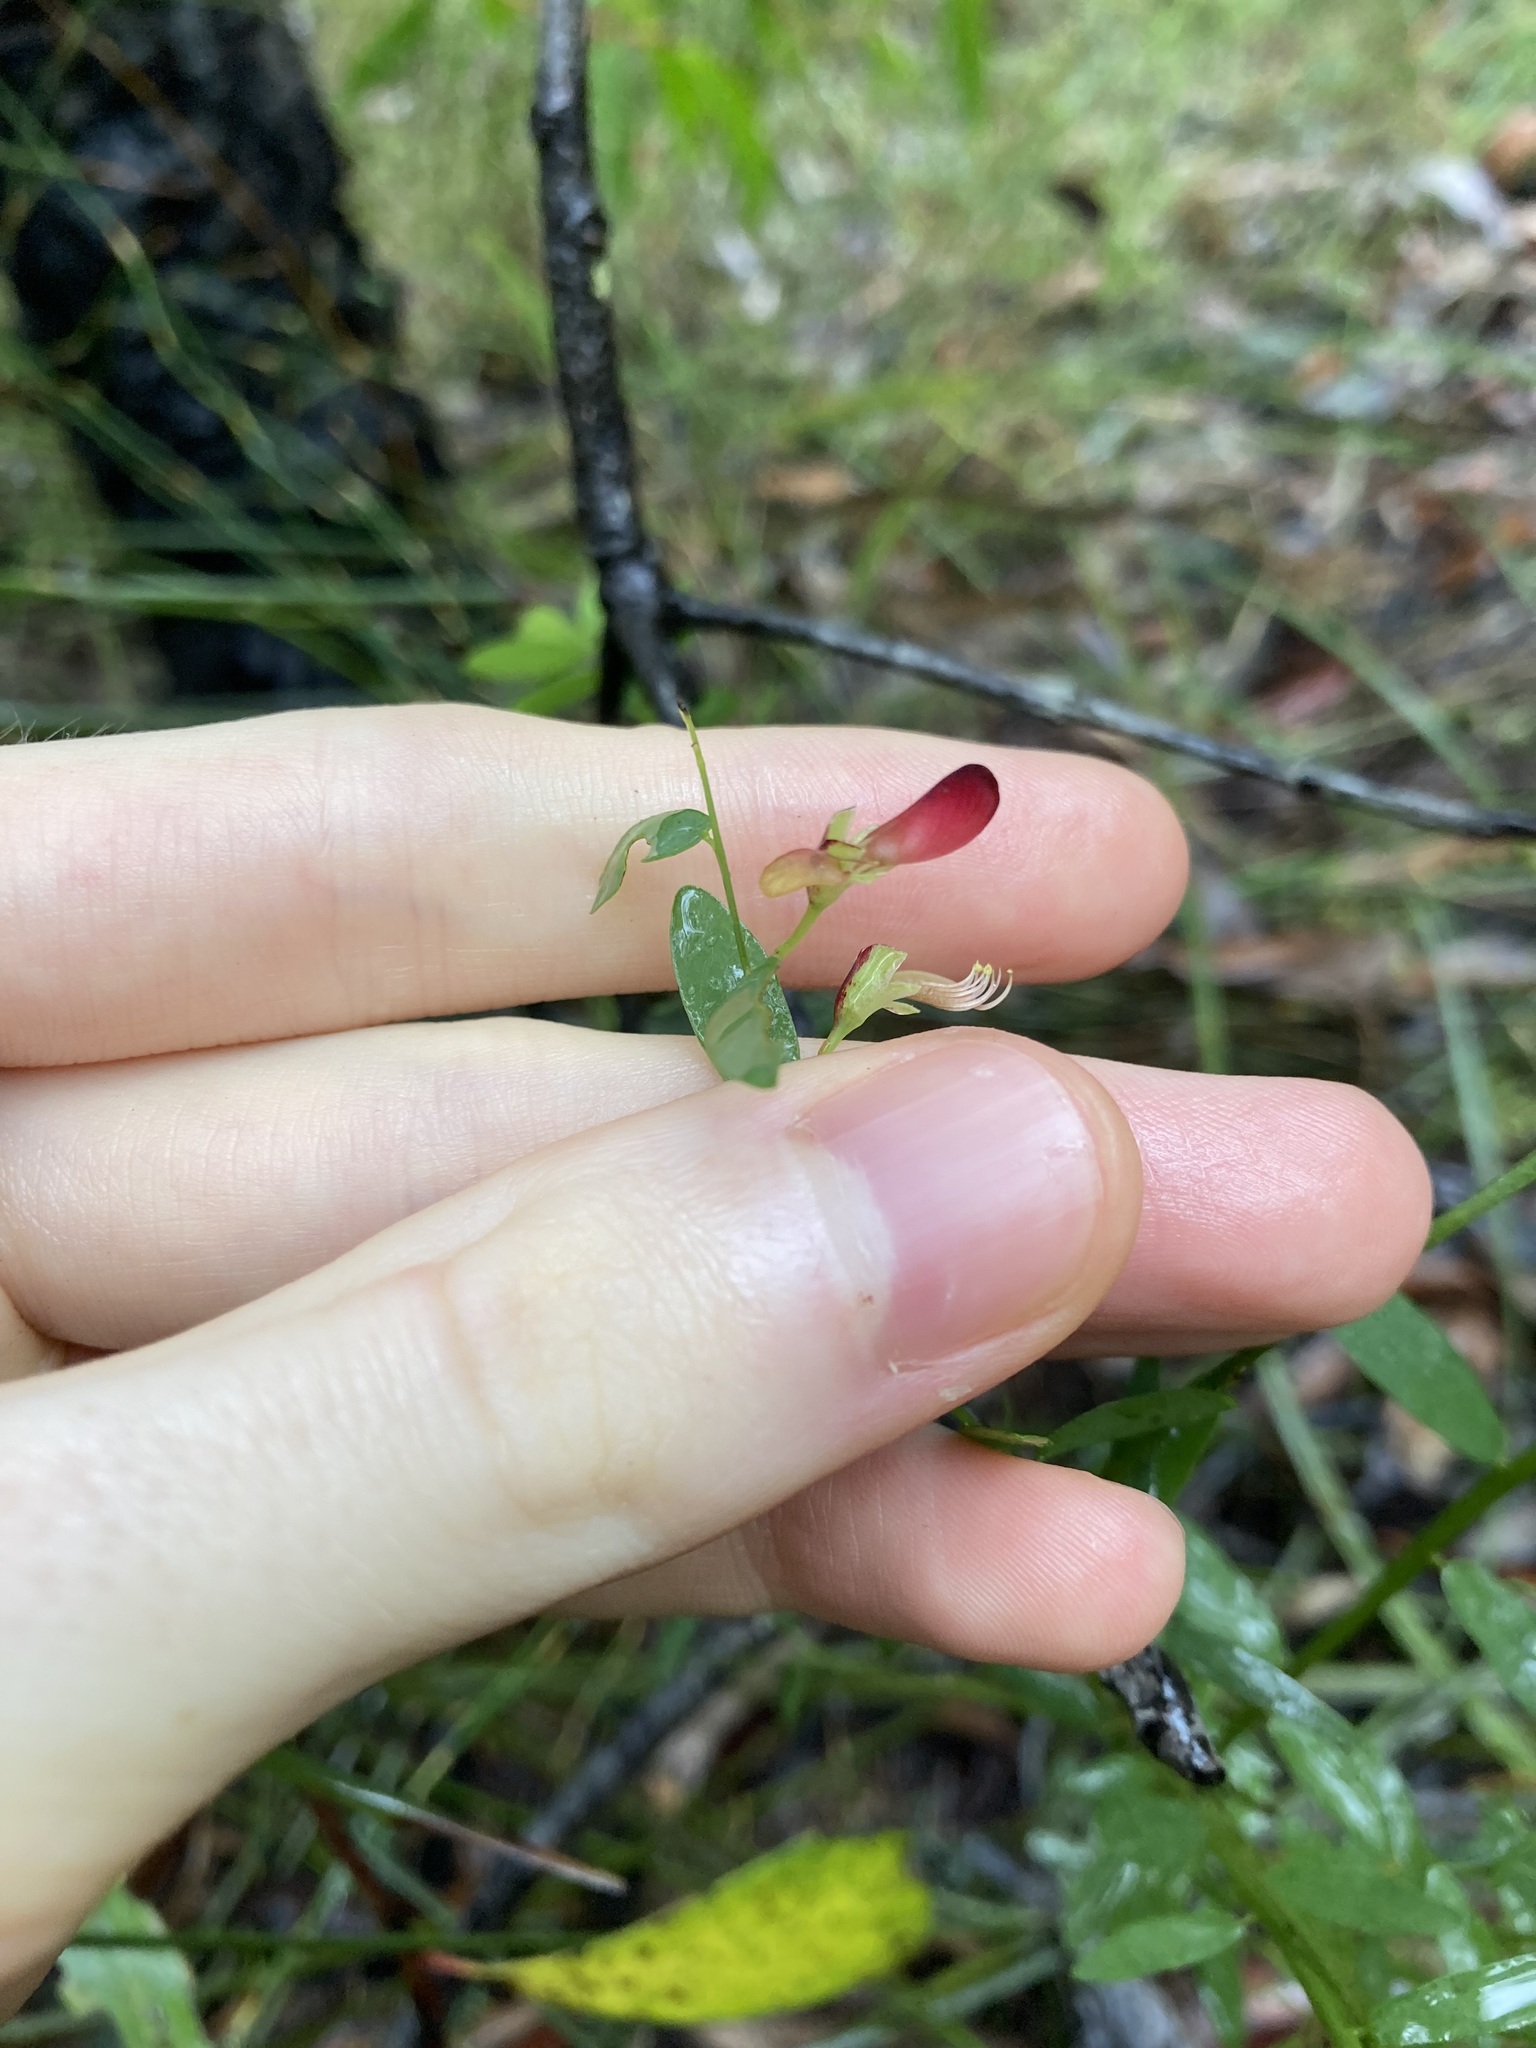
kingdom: Plantae
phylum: Tracheophyta
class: Magnoliopsida
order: Fabales
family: Fabaceae
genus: Bossiaea
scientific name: Bossiaea heterophylla
